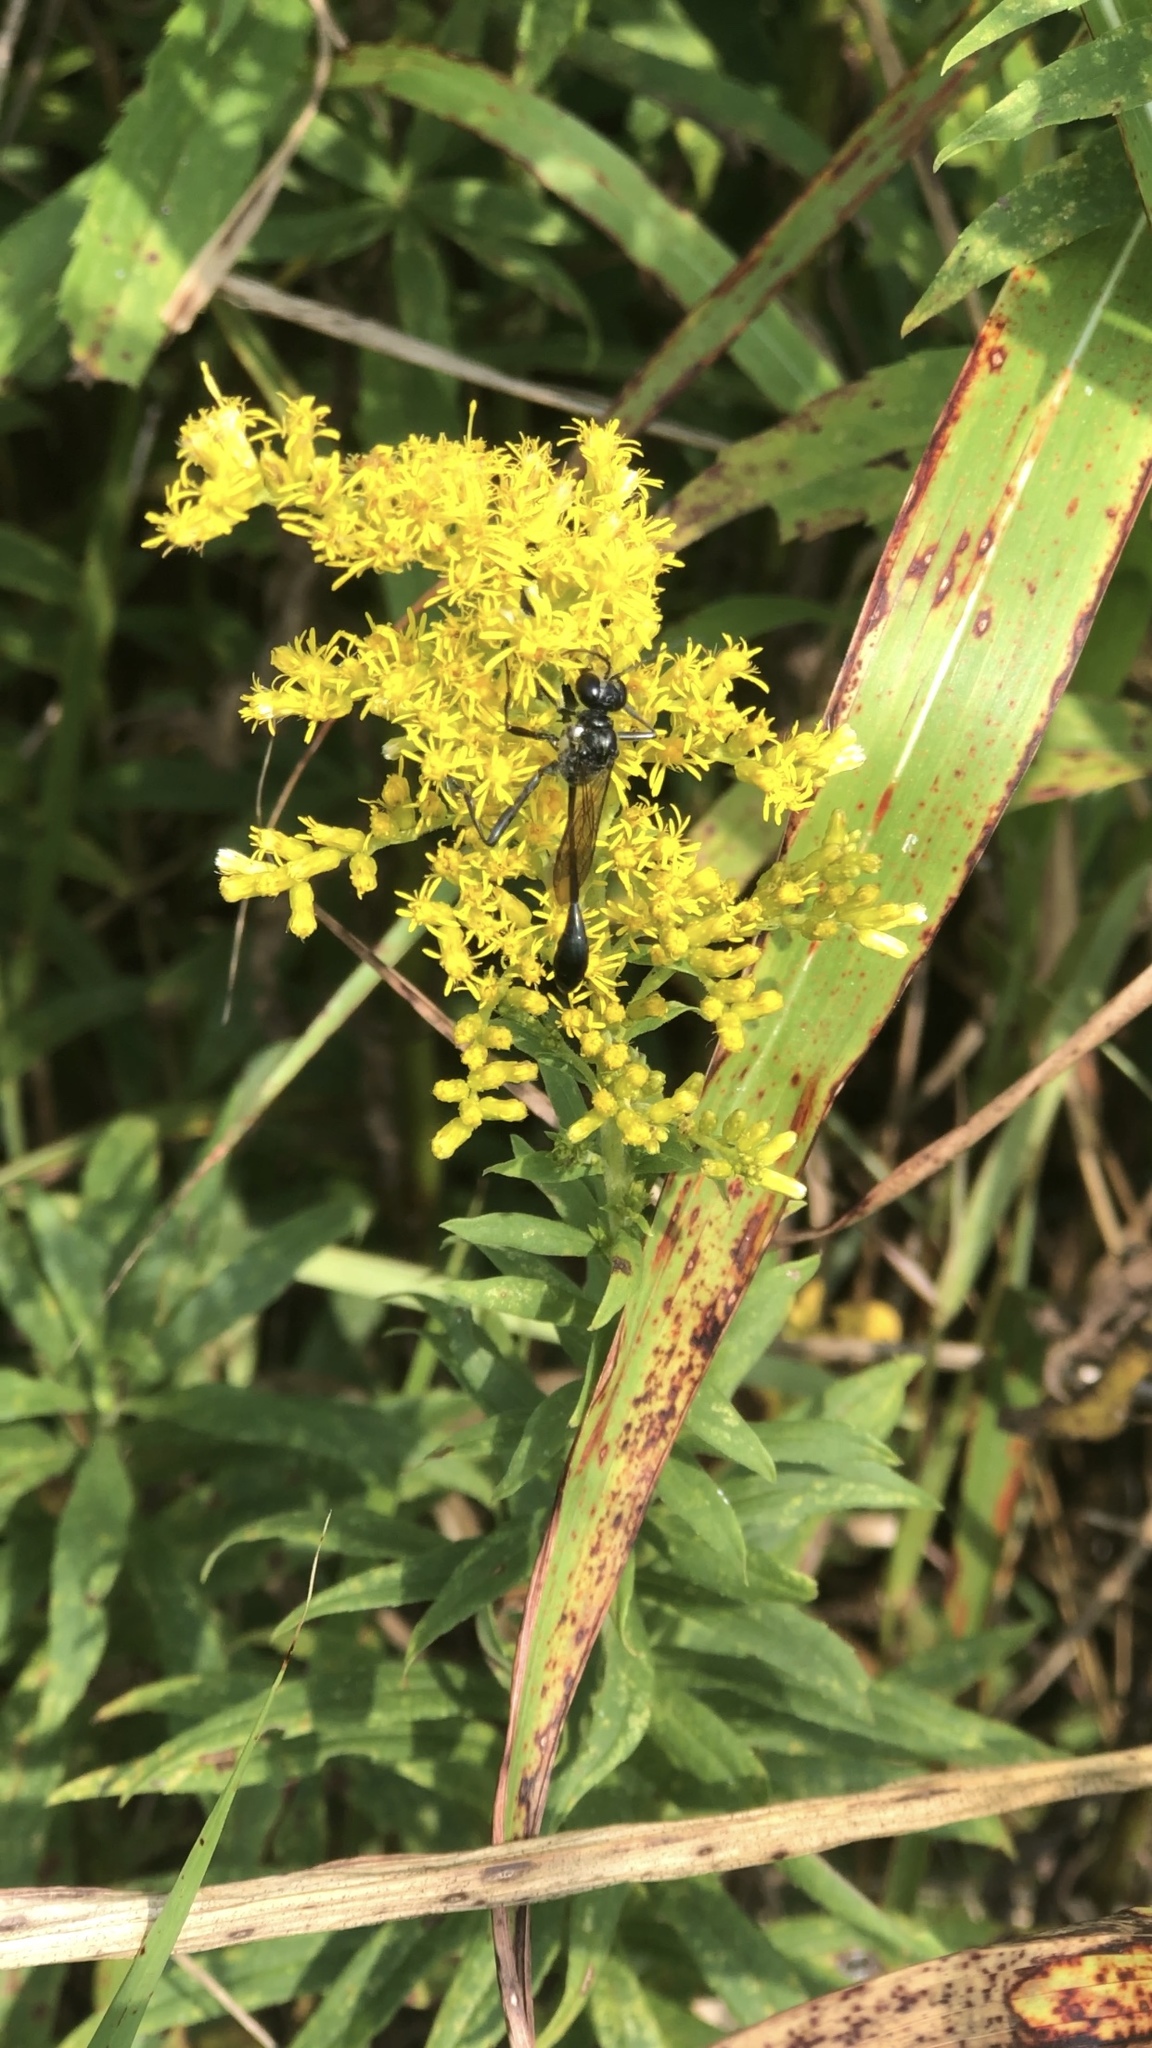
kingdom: Animalia
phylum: Arthropoda
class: Insecta
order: Hymenoptera
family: Sphecidae
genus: Eremnophila
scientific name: Eremnophila aureonotata
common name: Gold-marked thread-waisted wasp
